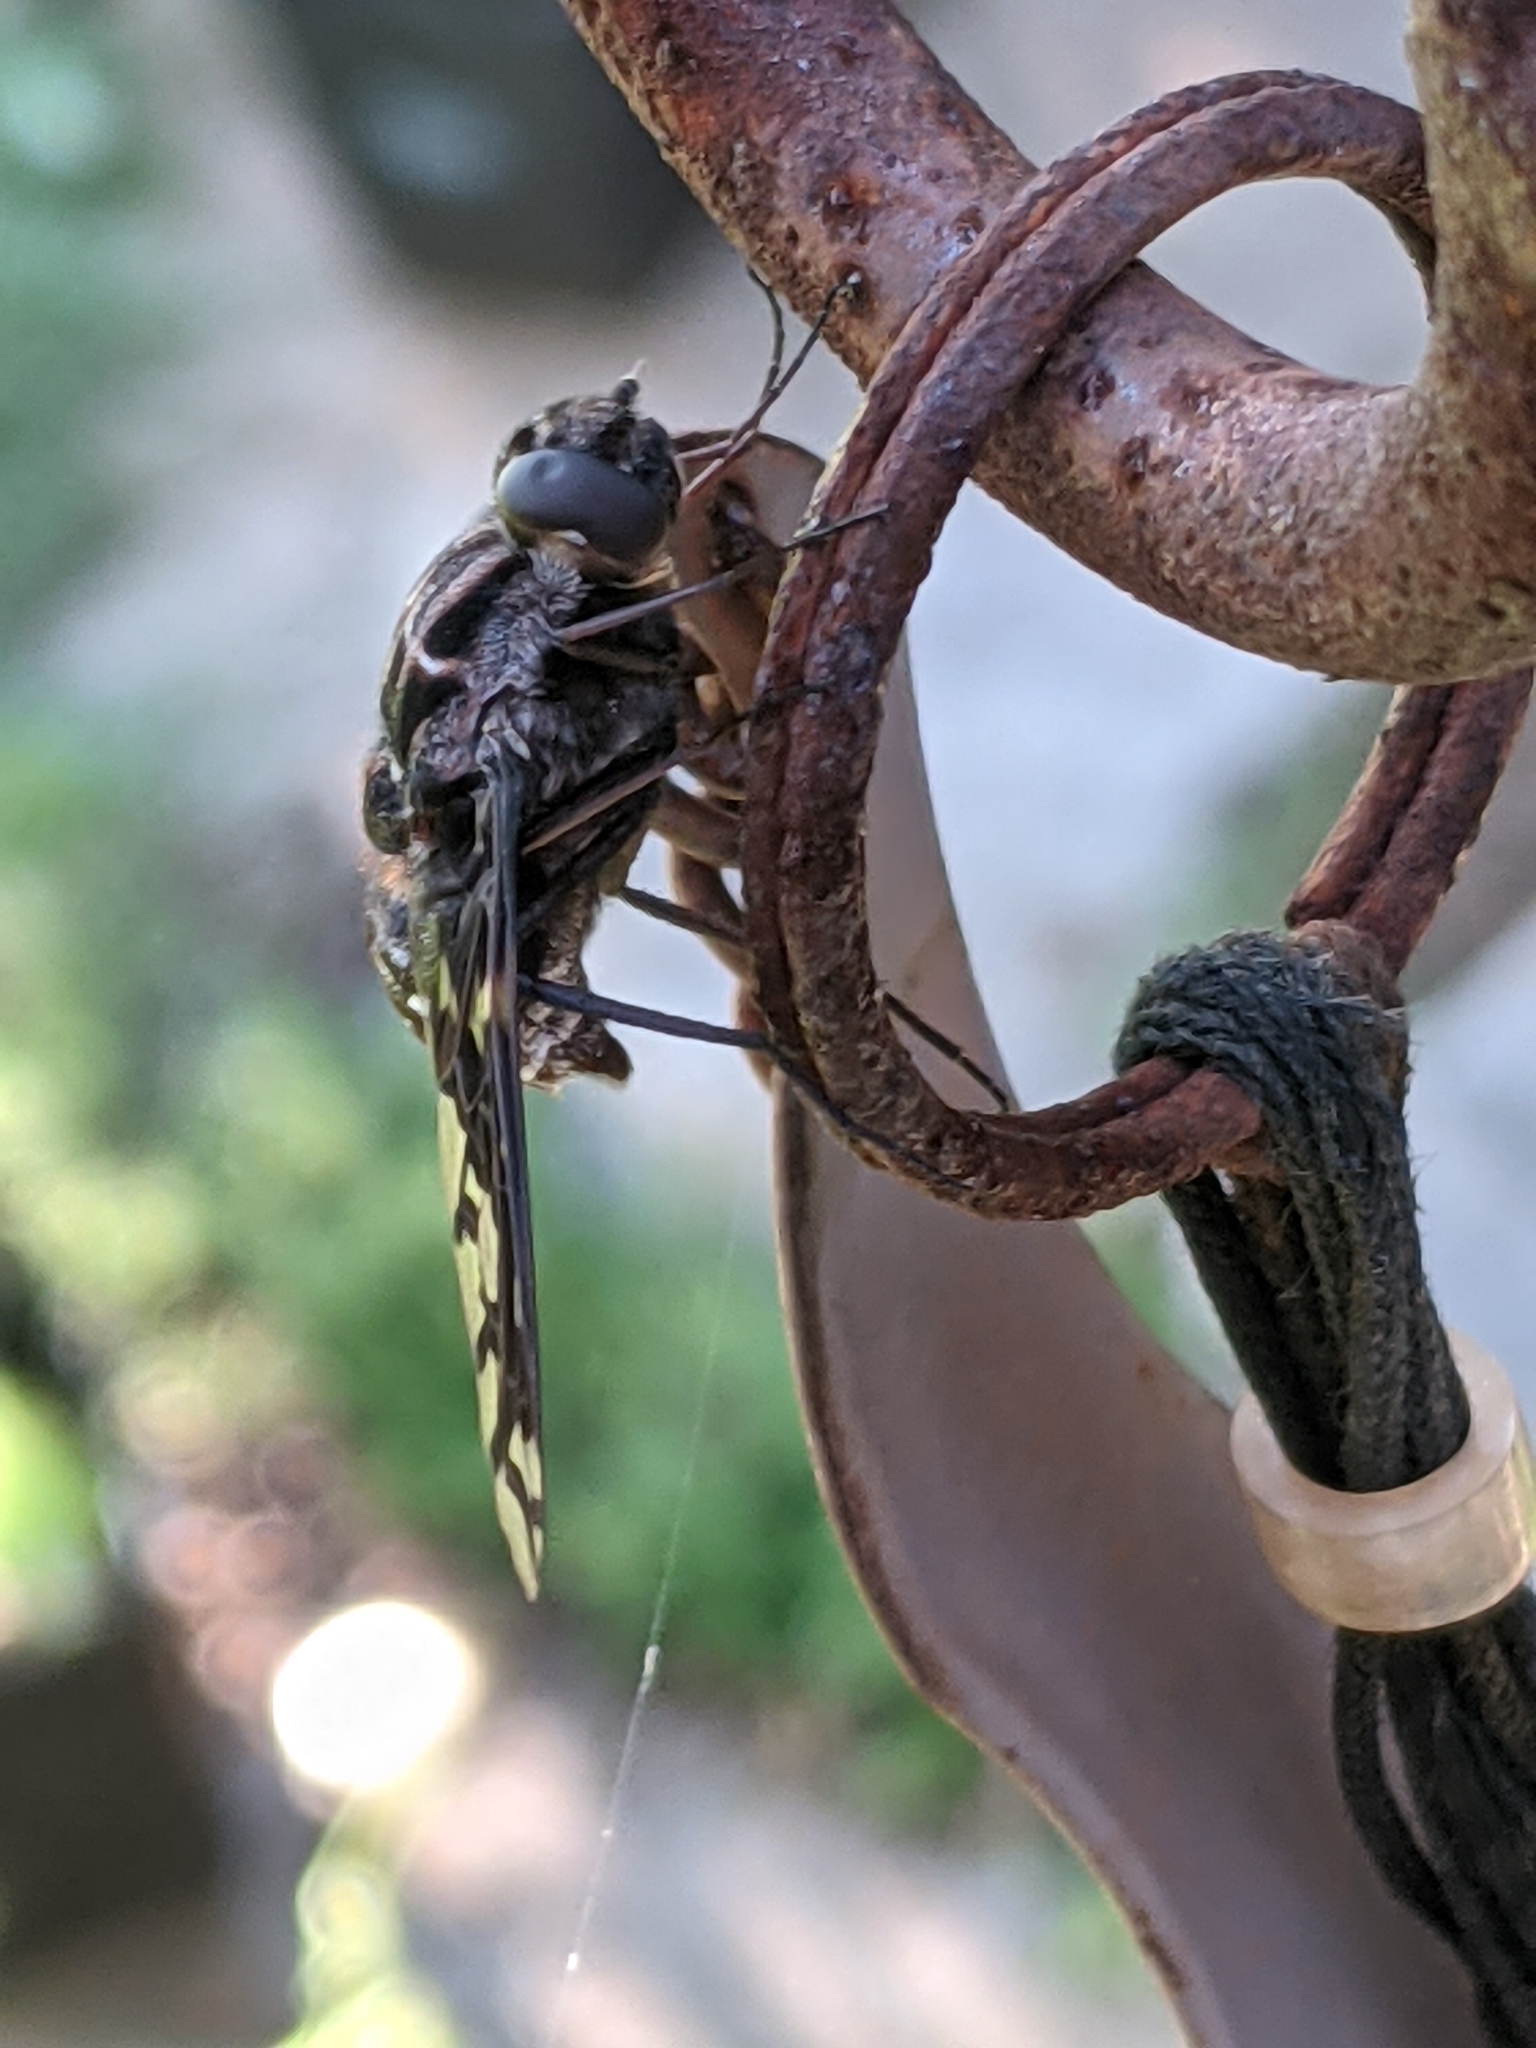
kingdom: Animalia
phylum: Arthropoda
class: Insecta
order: Diptera
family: Bombyliidae
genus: Xenox
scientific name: Xenox tigrinus
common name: Tiger bee fly
